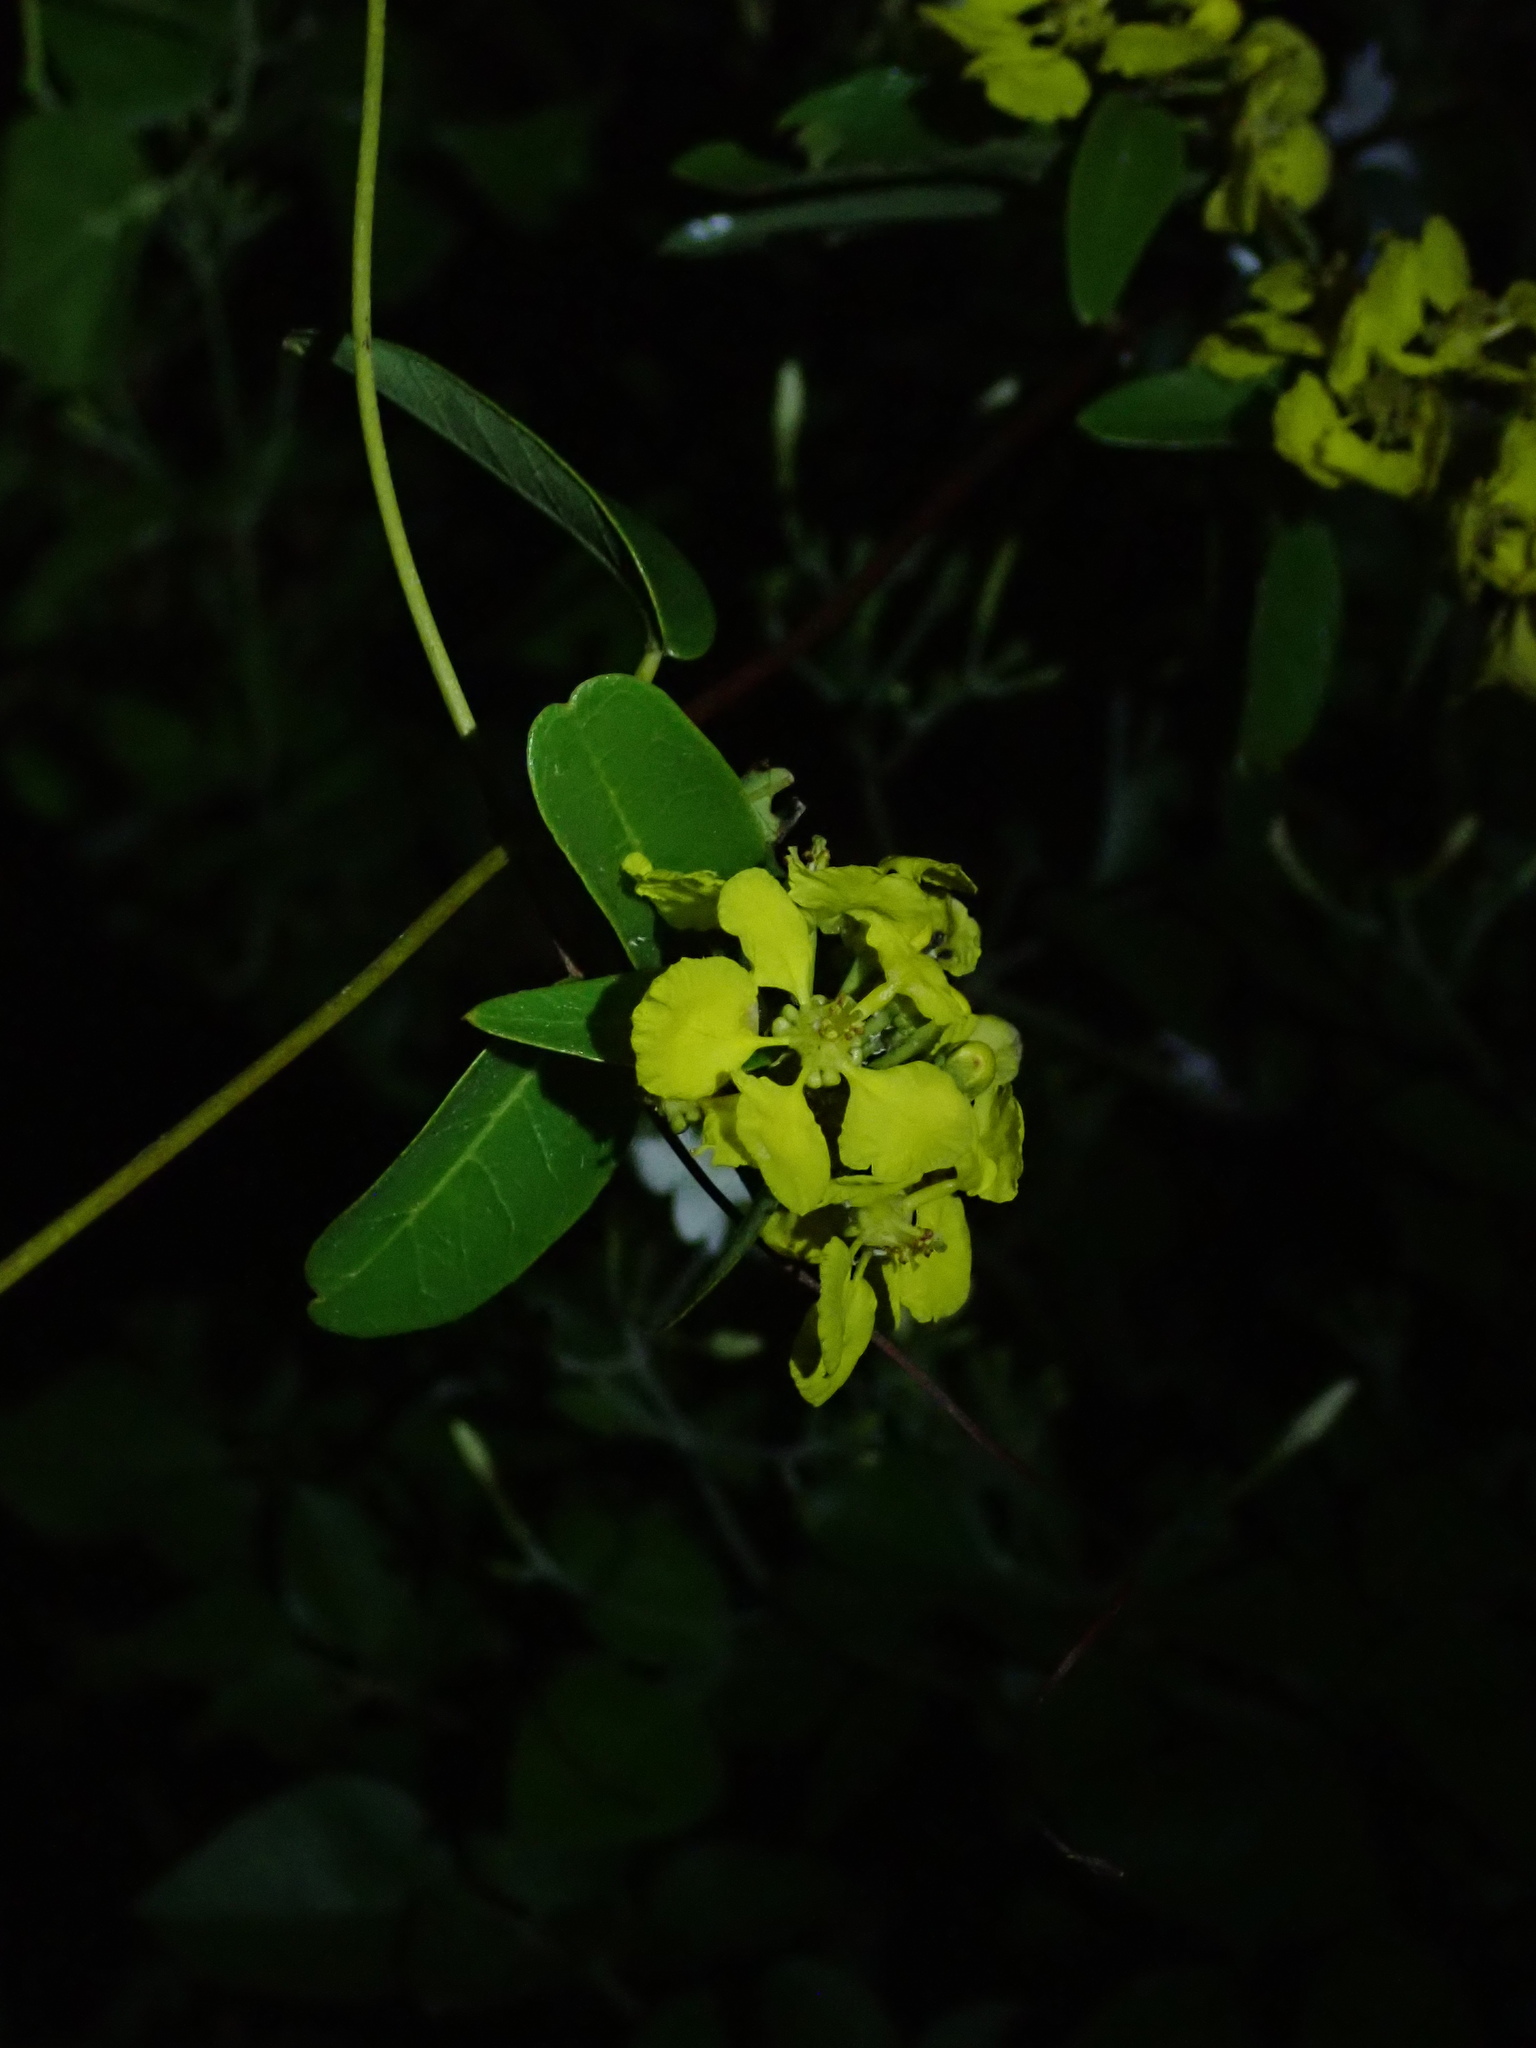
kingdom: Plantae
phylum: Tracheophyta
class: Magnoliopsida
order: Malpighiales
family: Malpighiaceae
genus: Stigmaphyllon
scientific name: Stigmaphyllon emarginatum
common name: Monarch amazonvine
